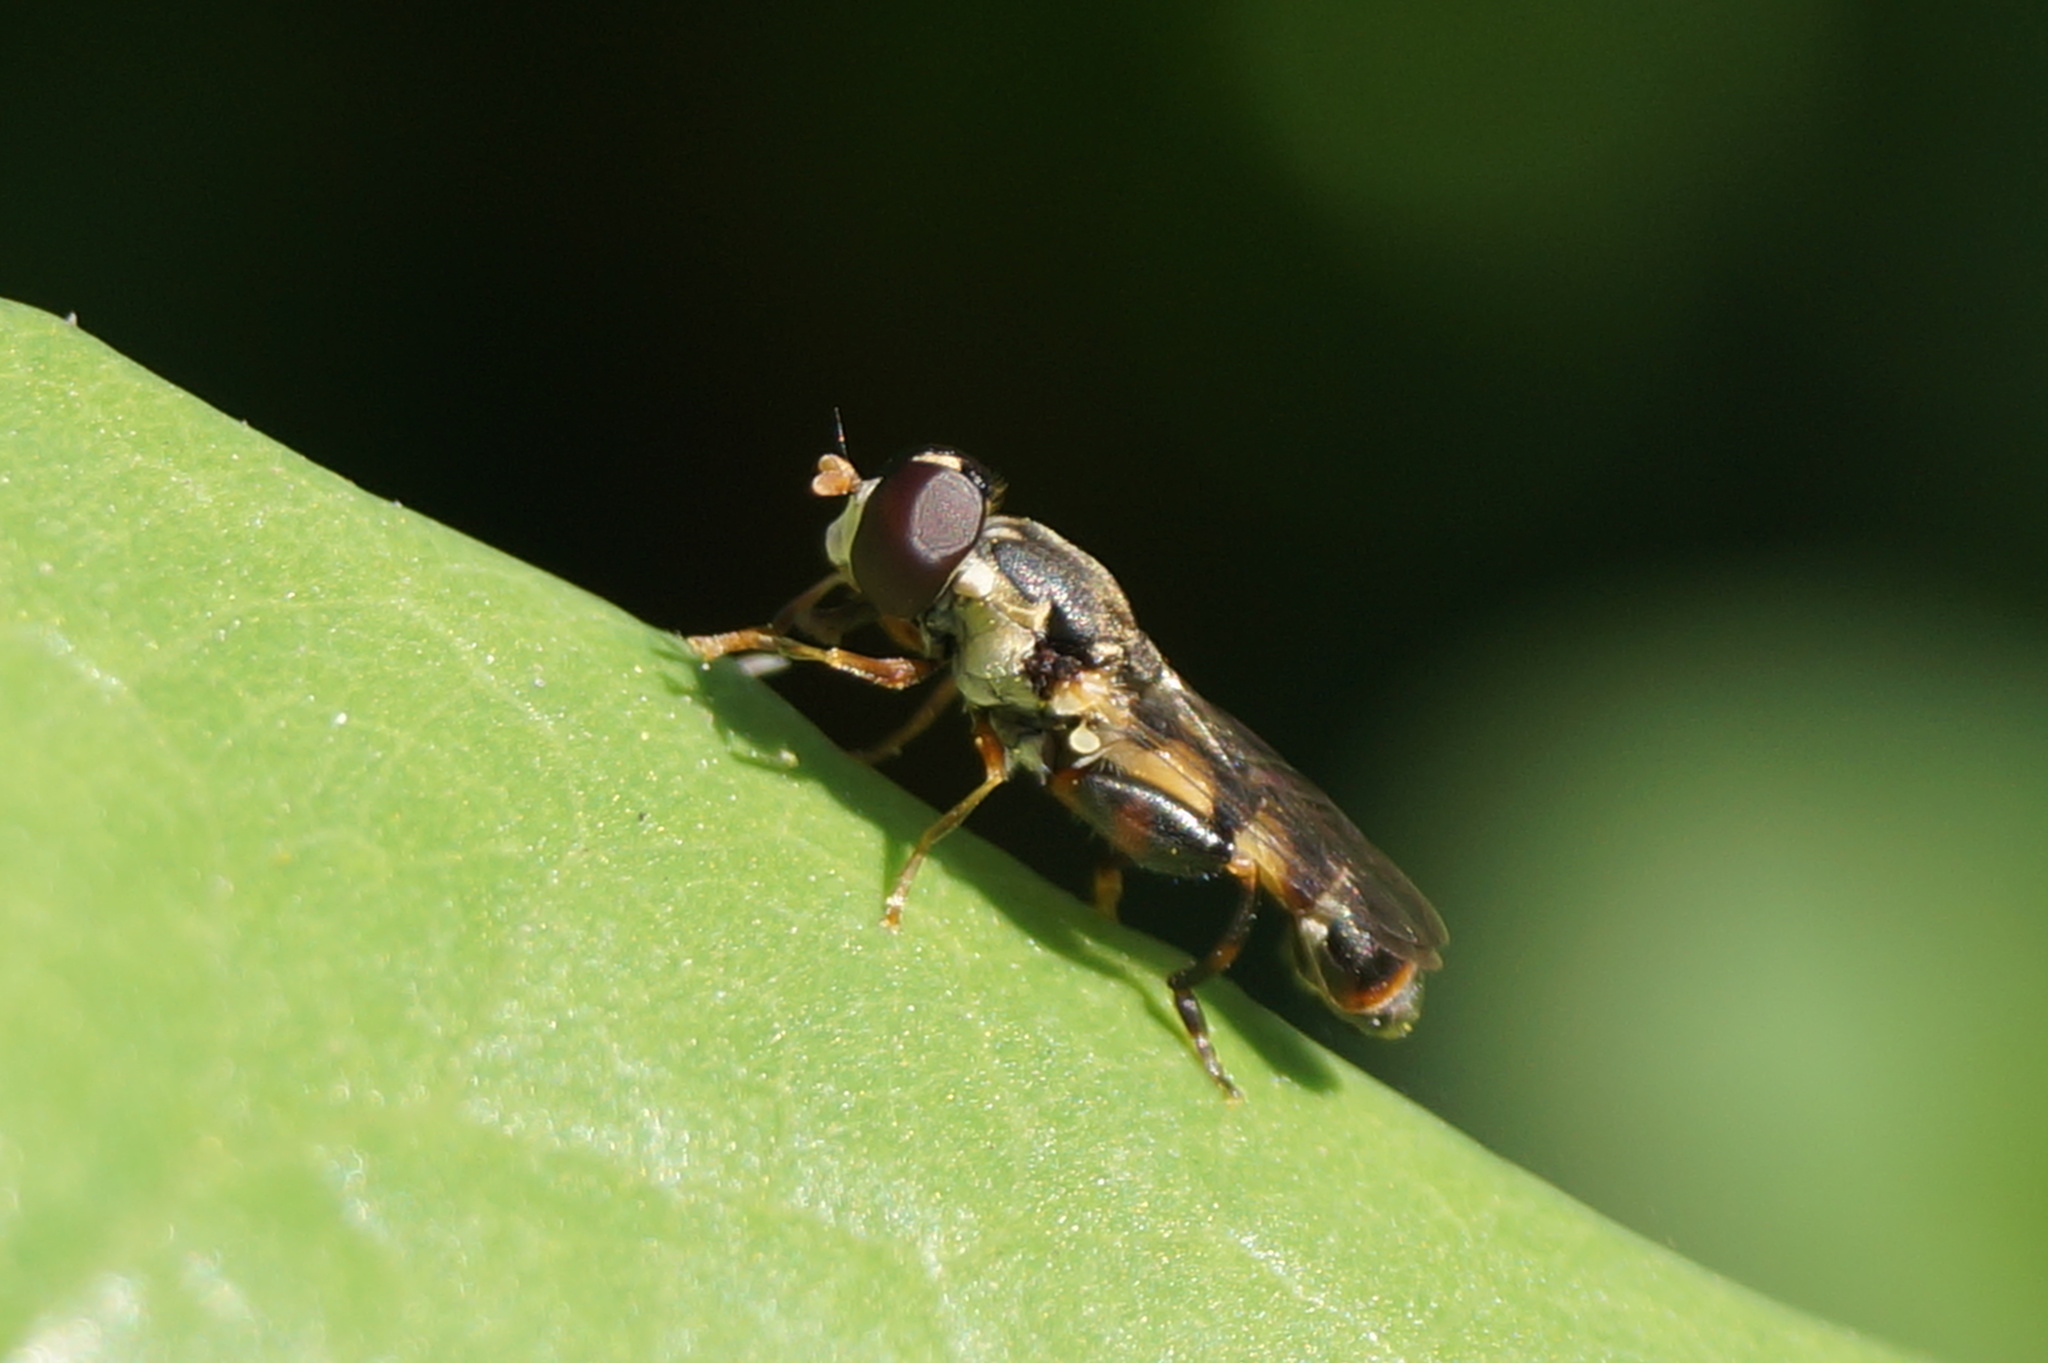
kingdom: Animalia
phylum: Arthropoda
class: Insecta
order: Diptera
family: Syrphidae
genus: Syritta
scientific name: Syritta pipiens
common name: Hover fly
